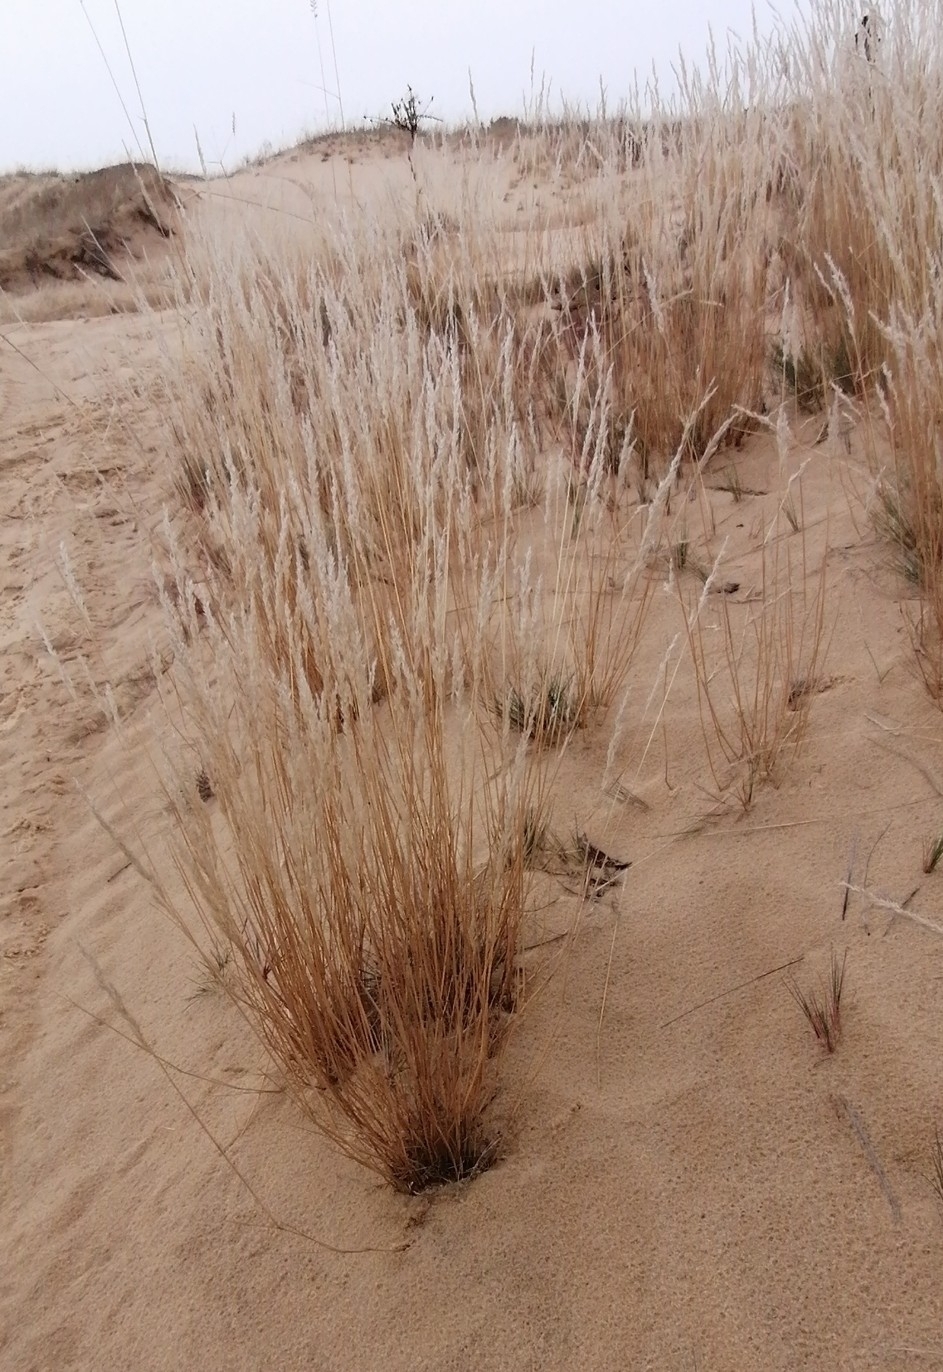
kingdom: Plantae
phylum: Tracheophyta
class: Liliopsida
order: Poales
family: Poaceae
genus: Corynephorus
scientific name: Corynephorus canescens
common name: Grey hair-grass
